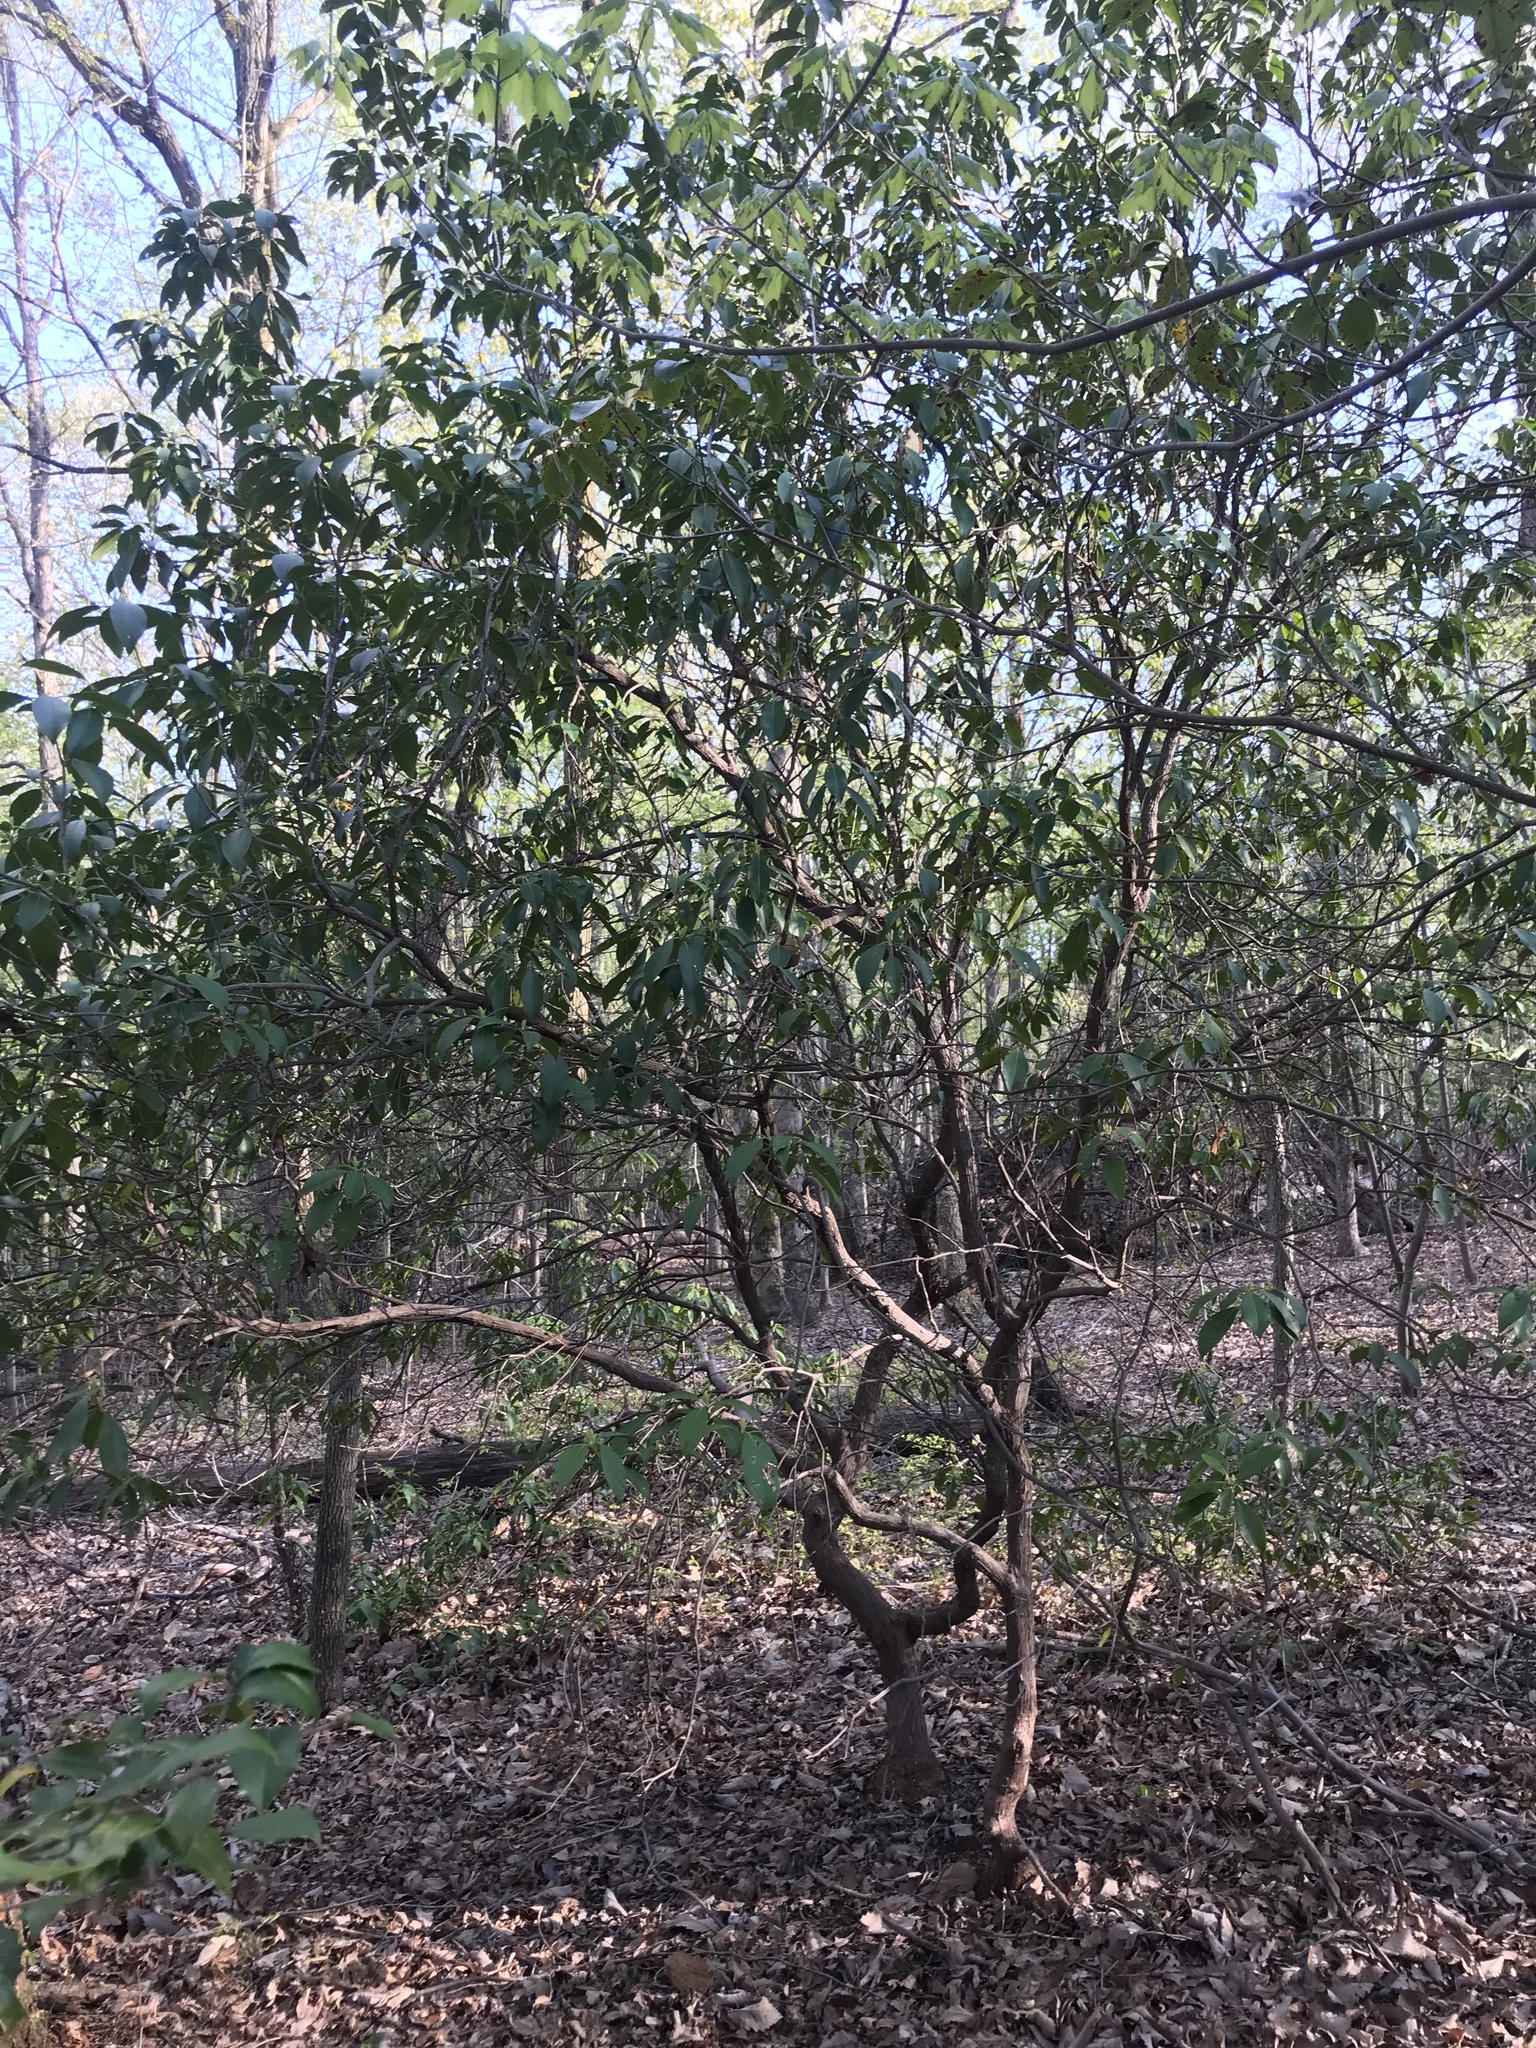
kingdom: Plantae
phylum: Tracheophyta
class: Magnoliopsida
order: Ericales
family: Ericaceae
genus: Kalmia
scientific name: Kalmia latifolia
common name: Mountain-laurel
